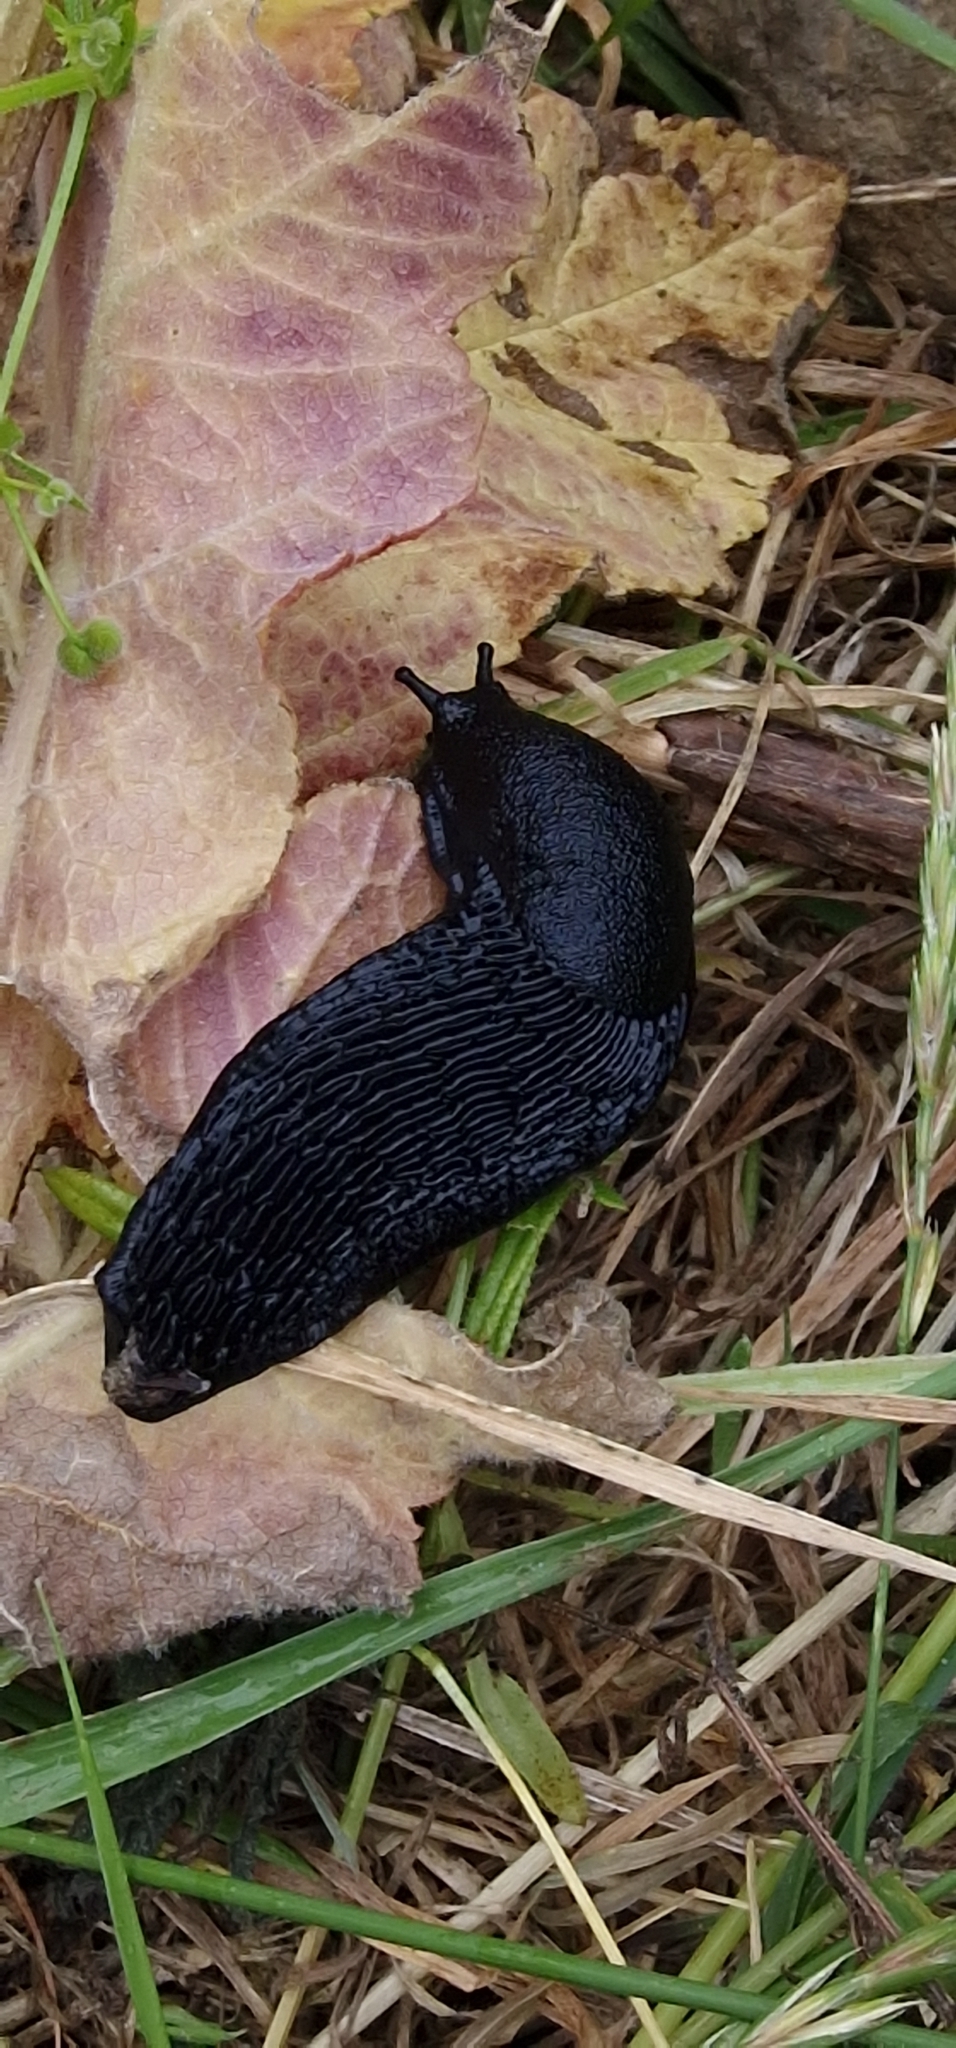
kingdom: Animalia
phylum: Mollusca
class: Gastropoda
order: Stylommatophora
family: Arionidae
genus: Arion
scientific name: Arion ater
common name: Black arion
